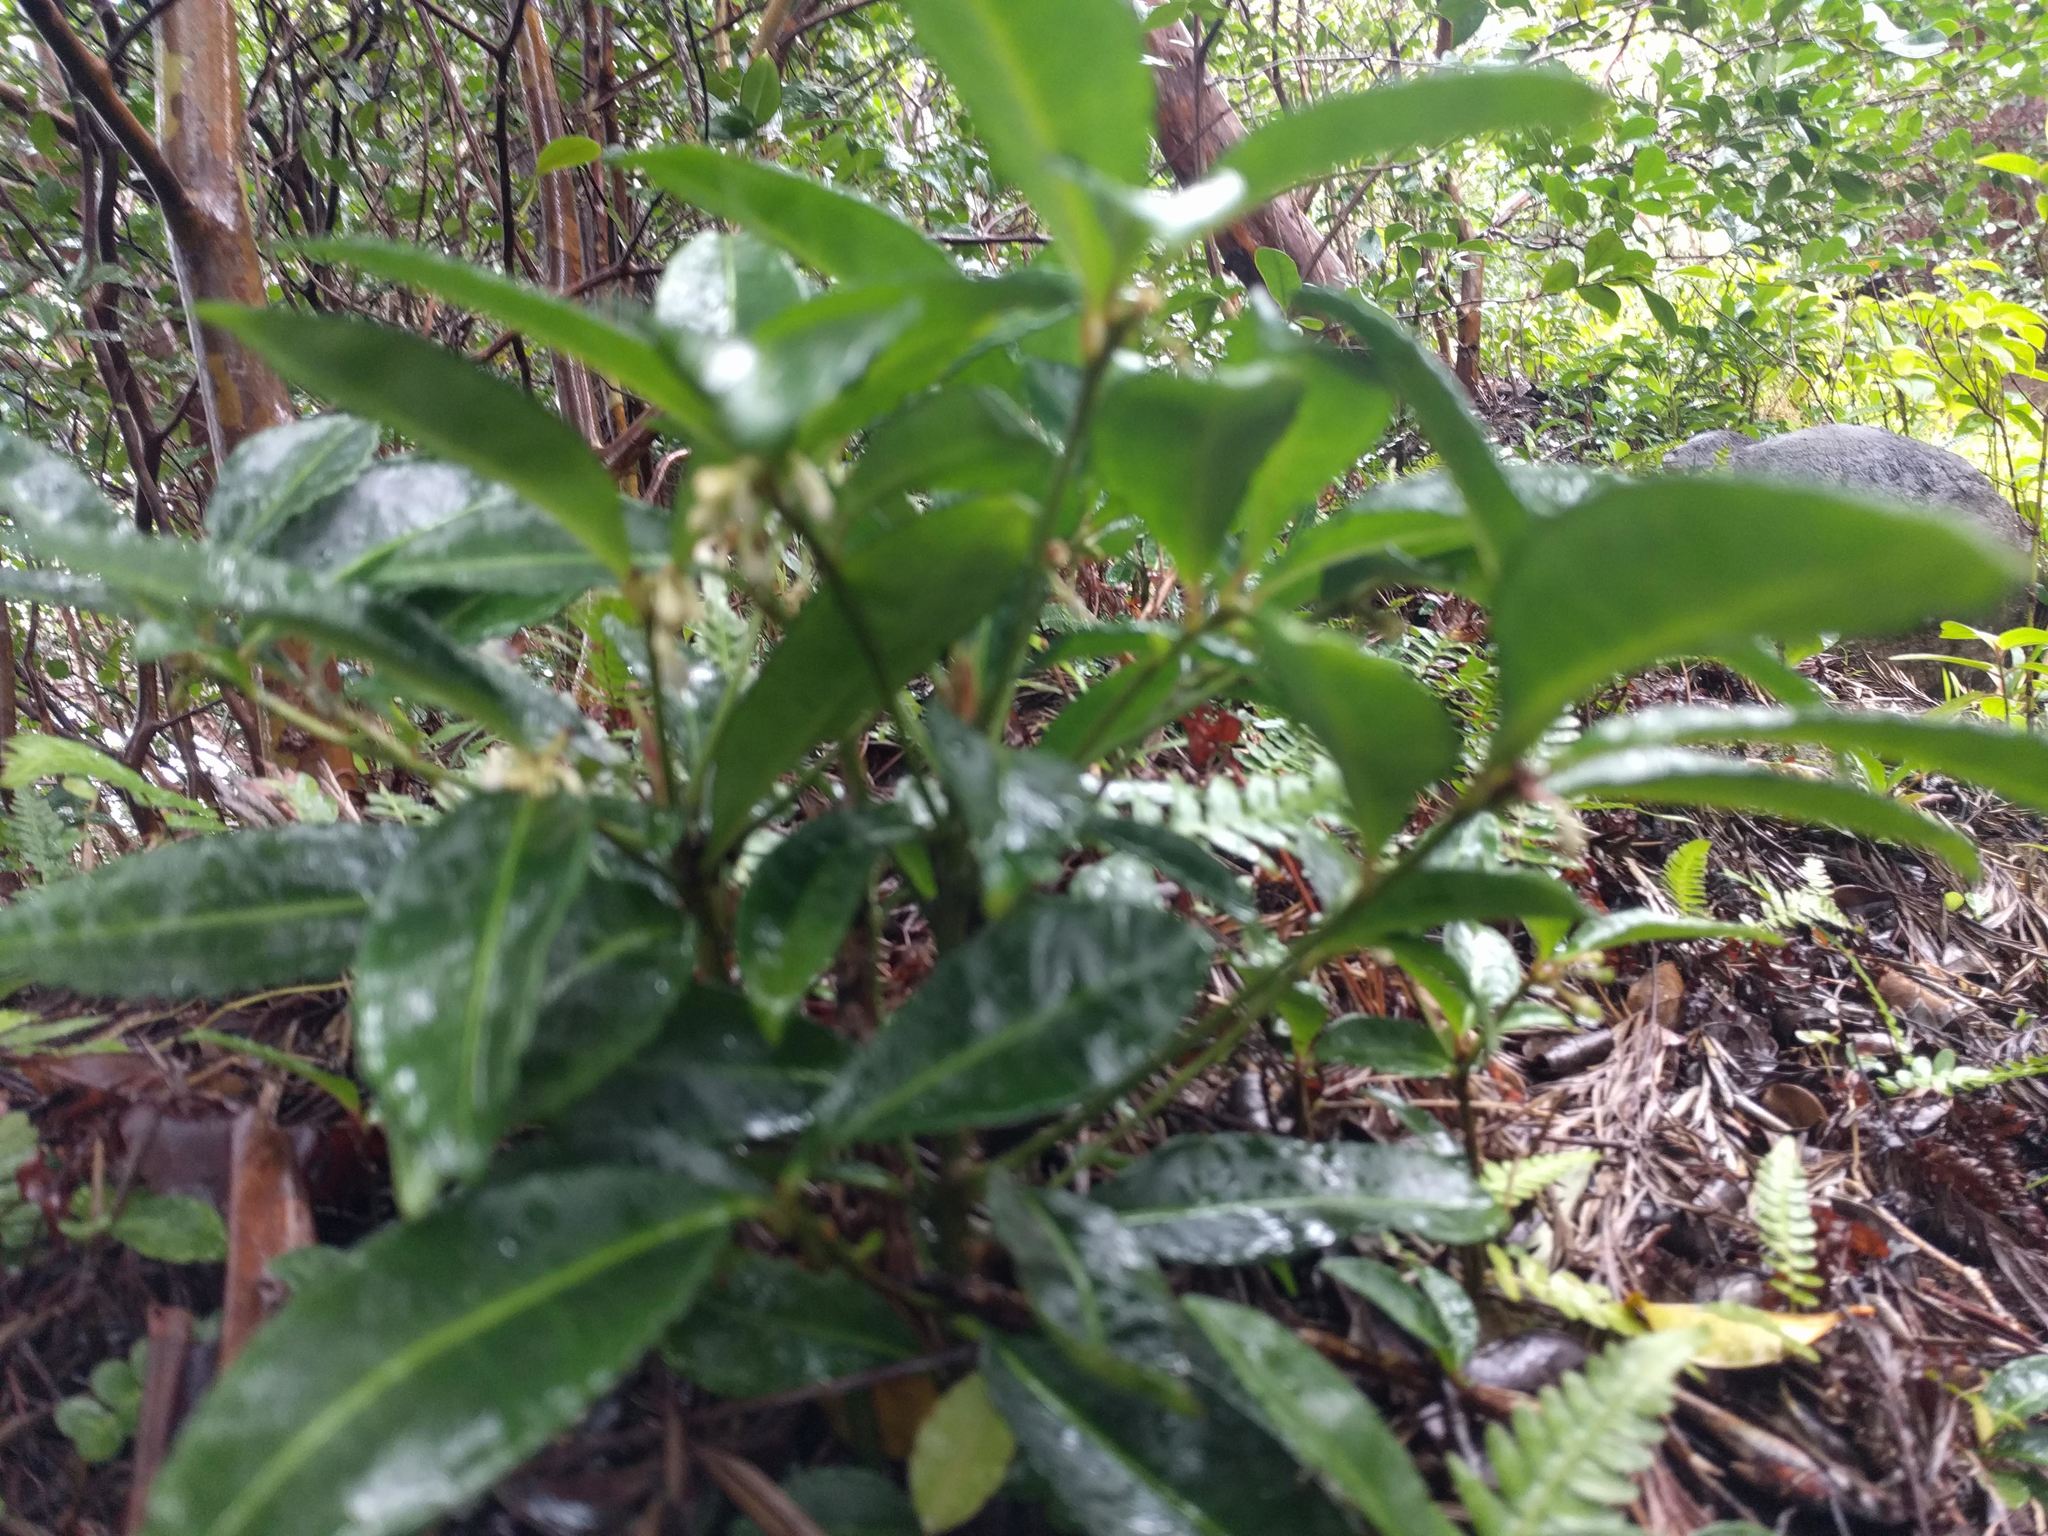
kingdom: Plantae
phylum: Tracheophyta
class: Magnoliopsida
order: Ericales
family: Primulaceae
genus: Ardisia
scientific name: Ardisia crenata
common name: Hen's eyes
